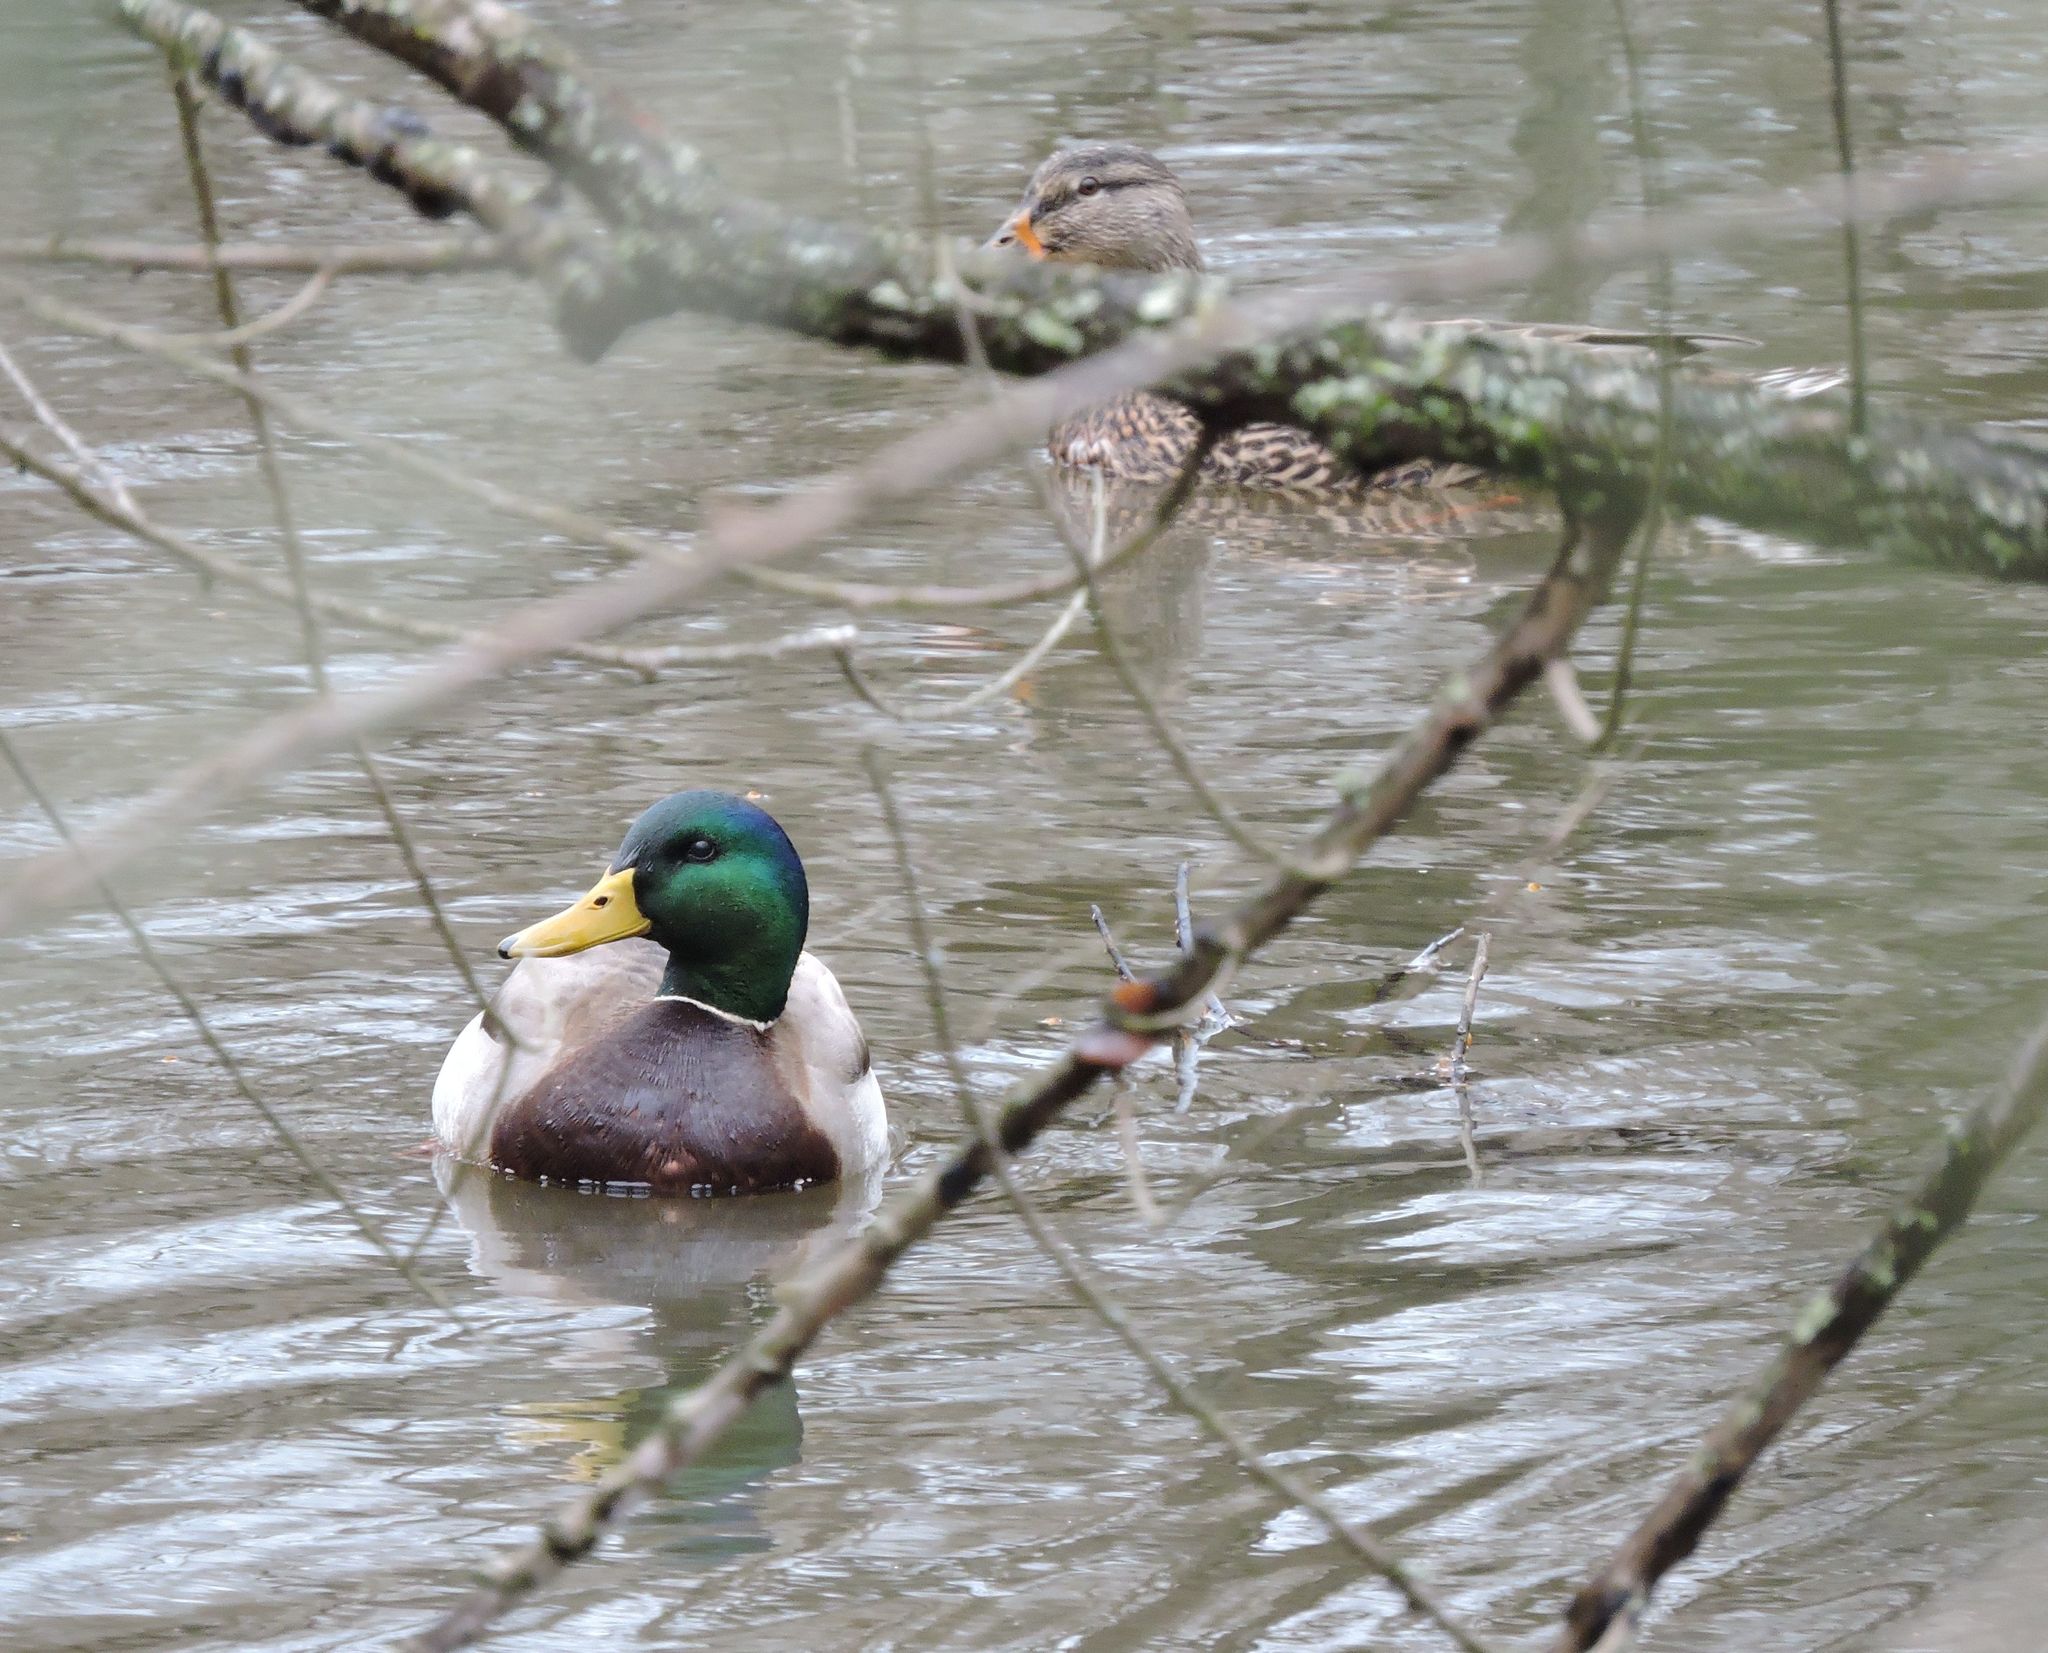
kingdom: Animalia
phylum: Chordata
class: Aves
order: Anseriformes
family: Anatidae
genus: Anas
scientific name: Anas platyrhynchos
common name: Mallard
